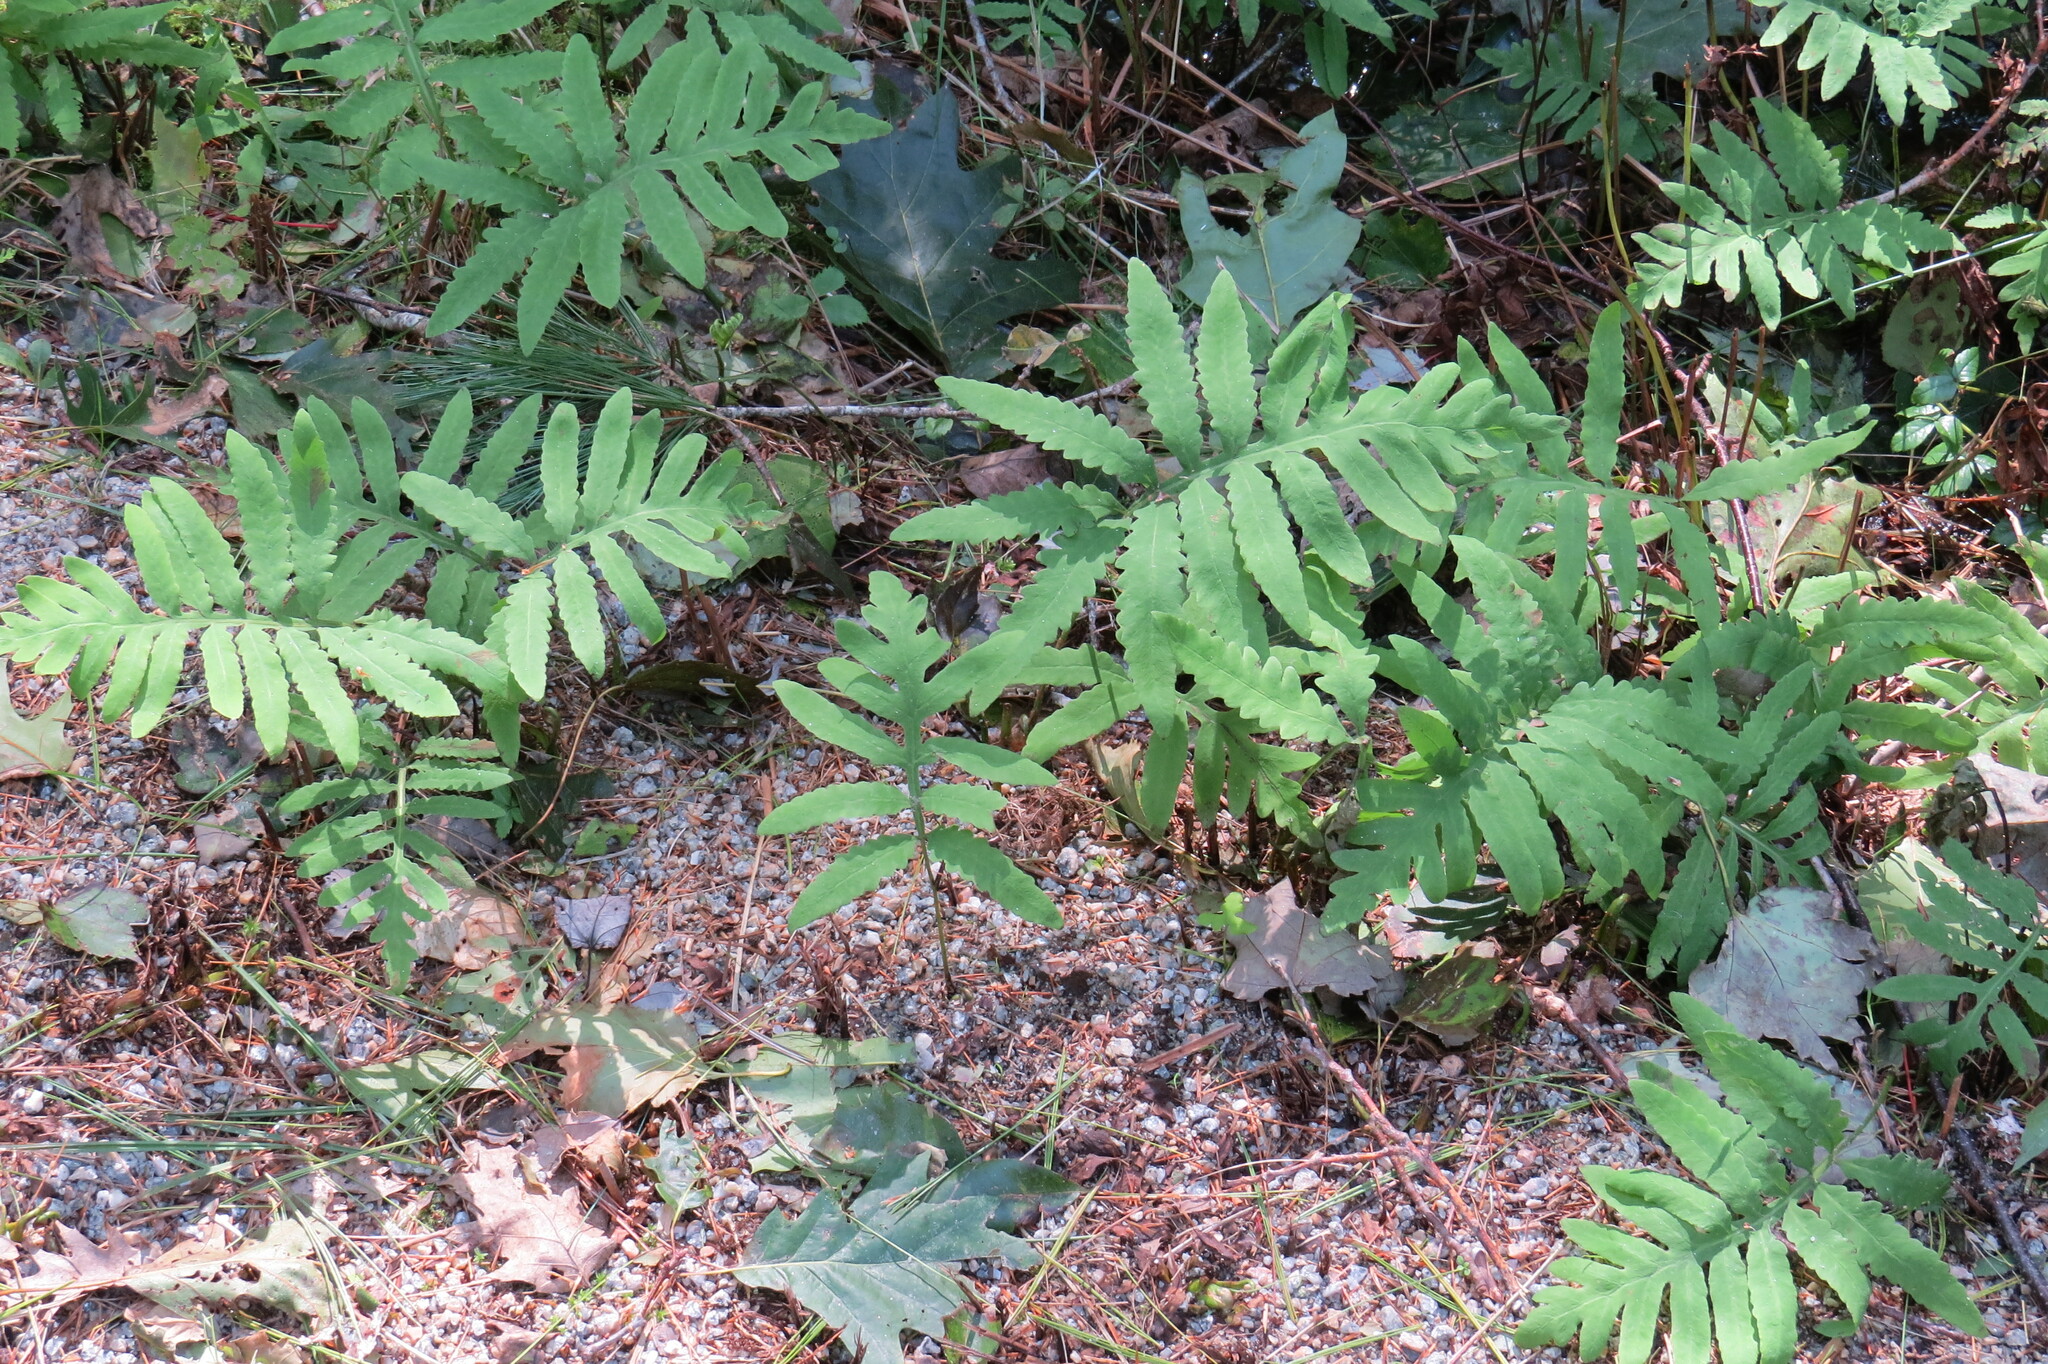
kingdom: Plantae
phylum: Tracheophyta
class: Polypodiopsida
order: Polypodiales
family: Onocleaceae
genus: Onoclea
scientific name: Onoclea sensibilis
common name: Sensitive fern
